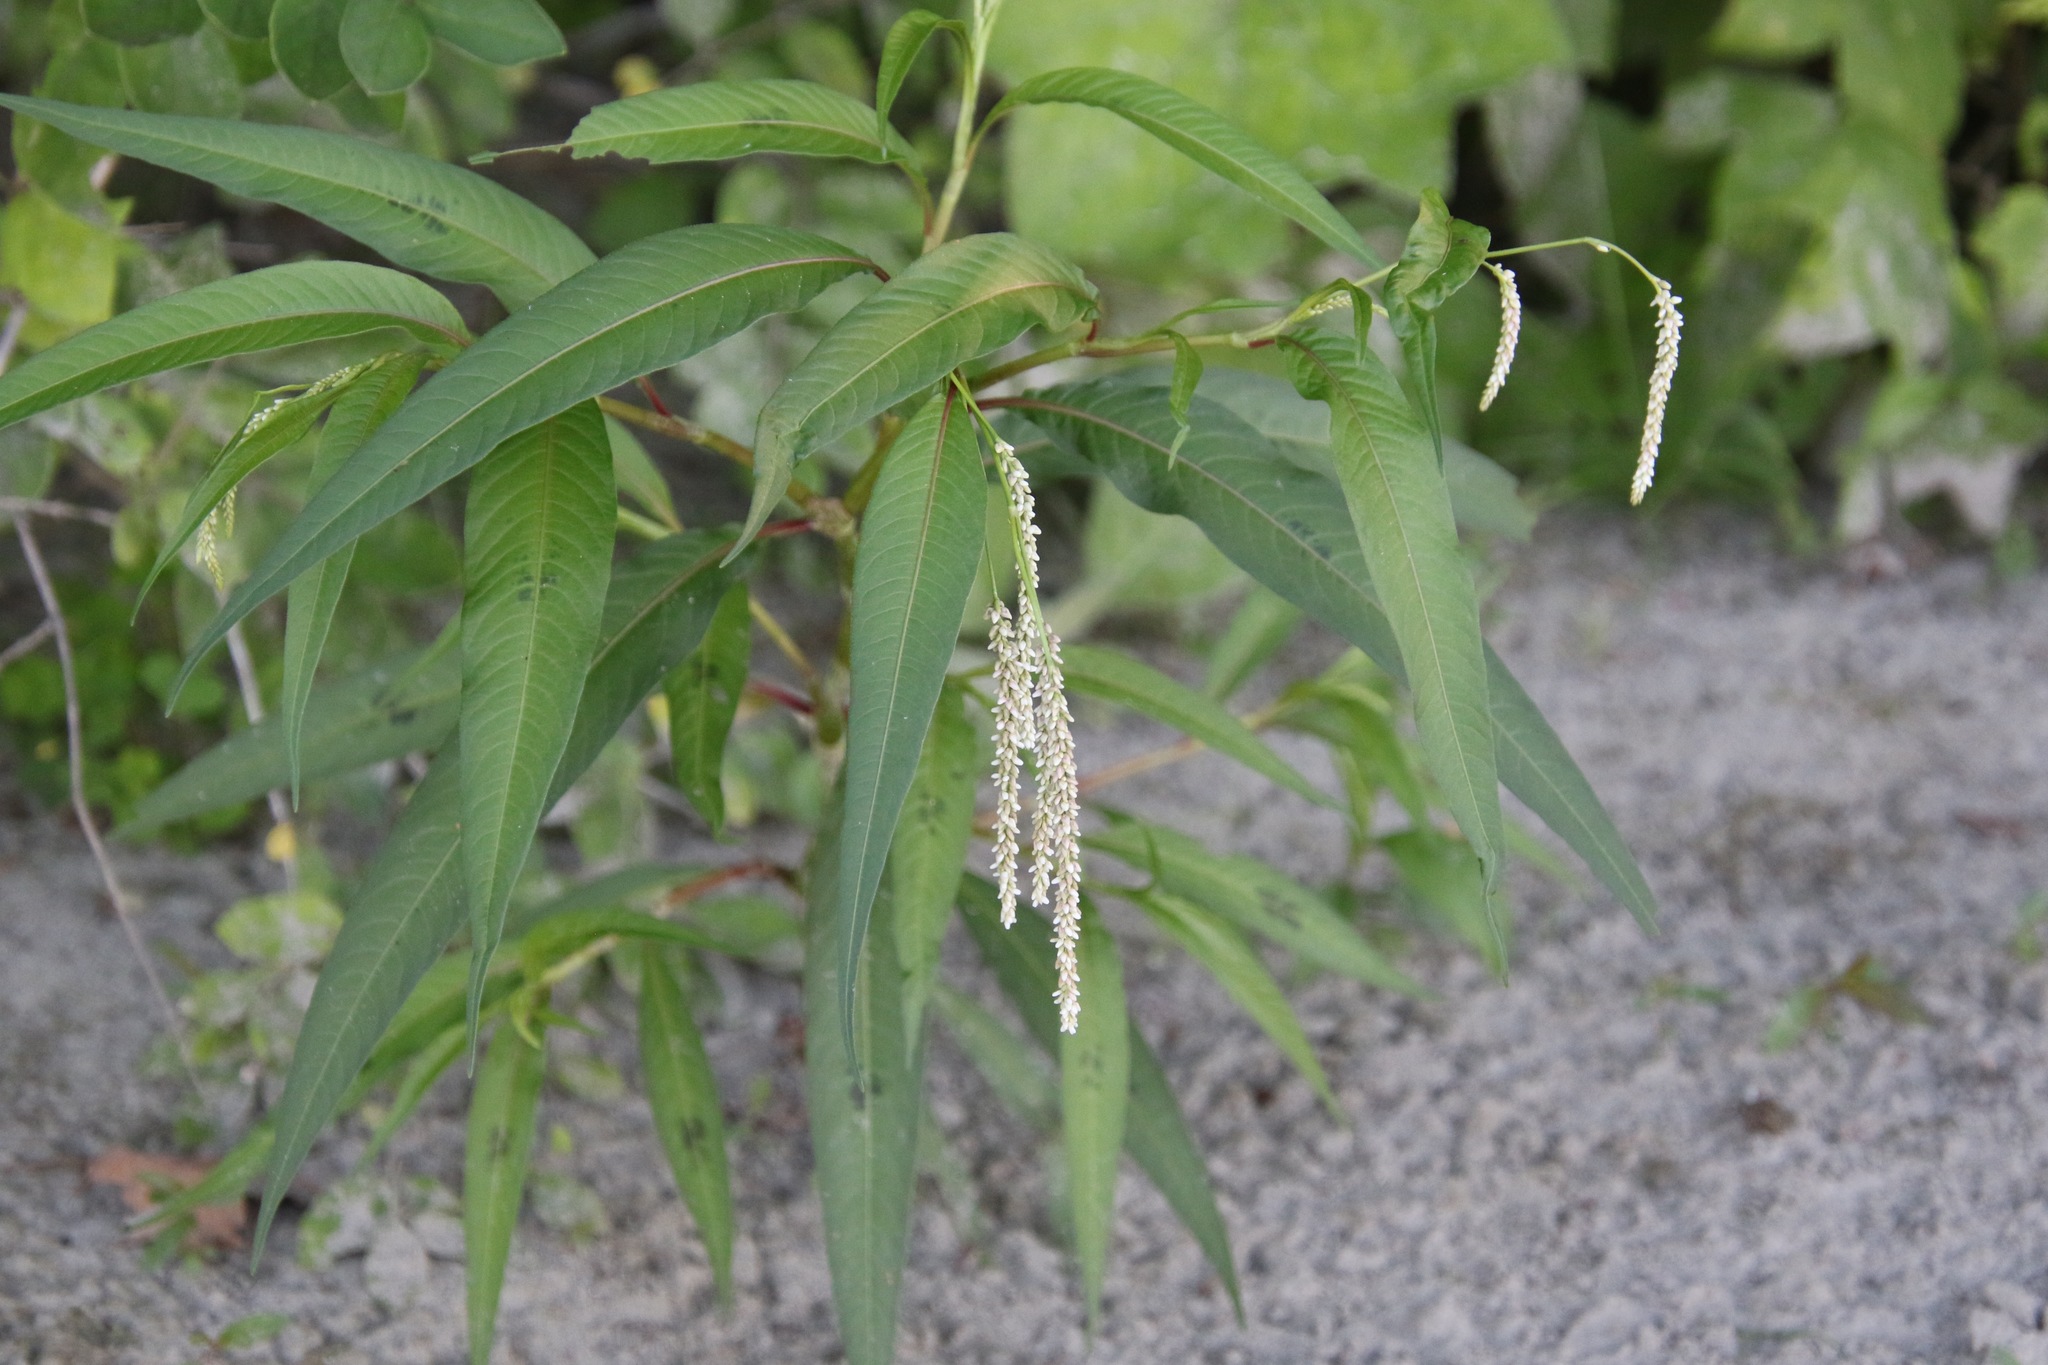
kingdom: Plantae
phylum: Tracheophyta
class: Magnoliopsida
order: Caryophyllales
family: Polygonaceae
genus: Persicaria
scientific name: Persicaria lapathifolia
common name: Curlytop knotweed
